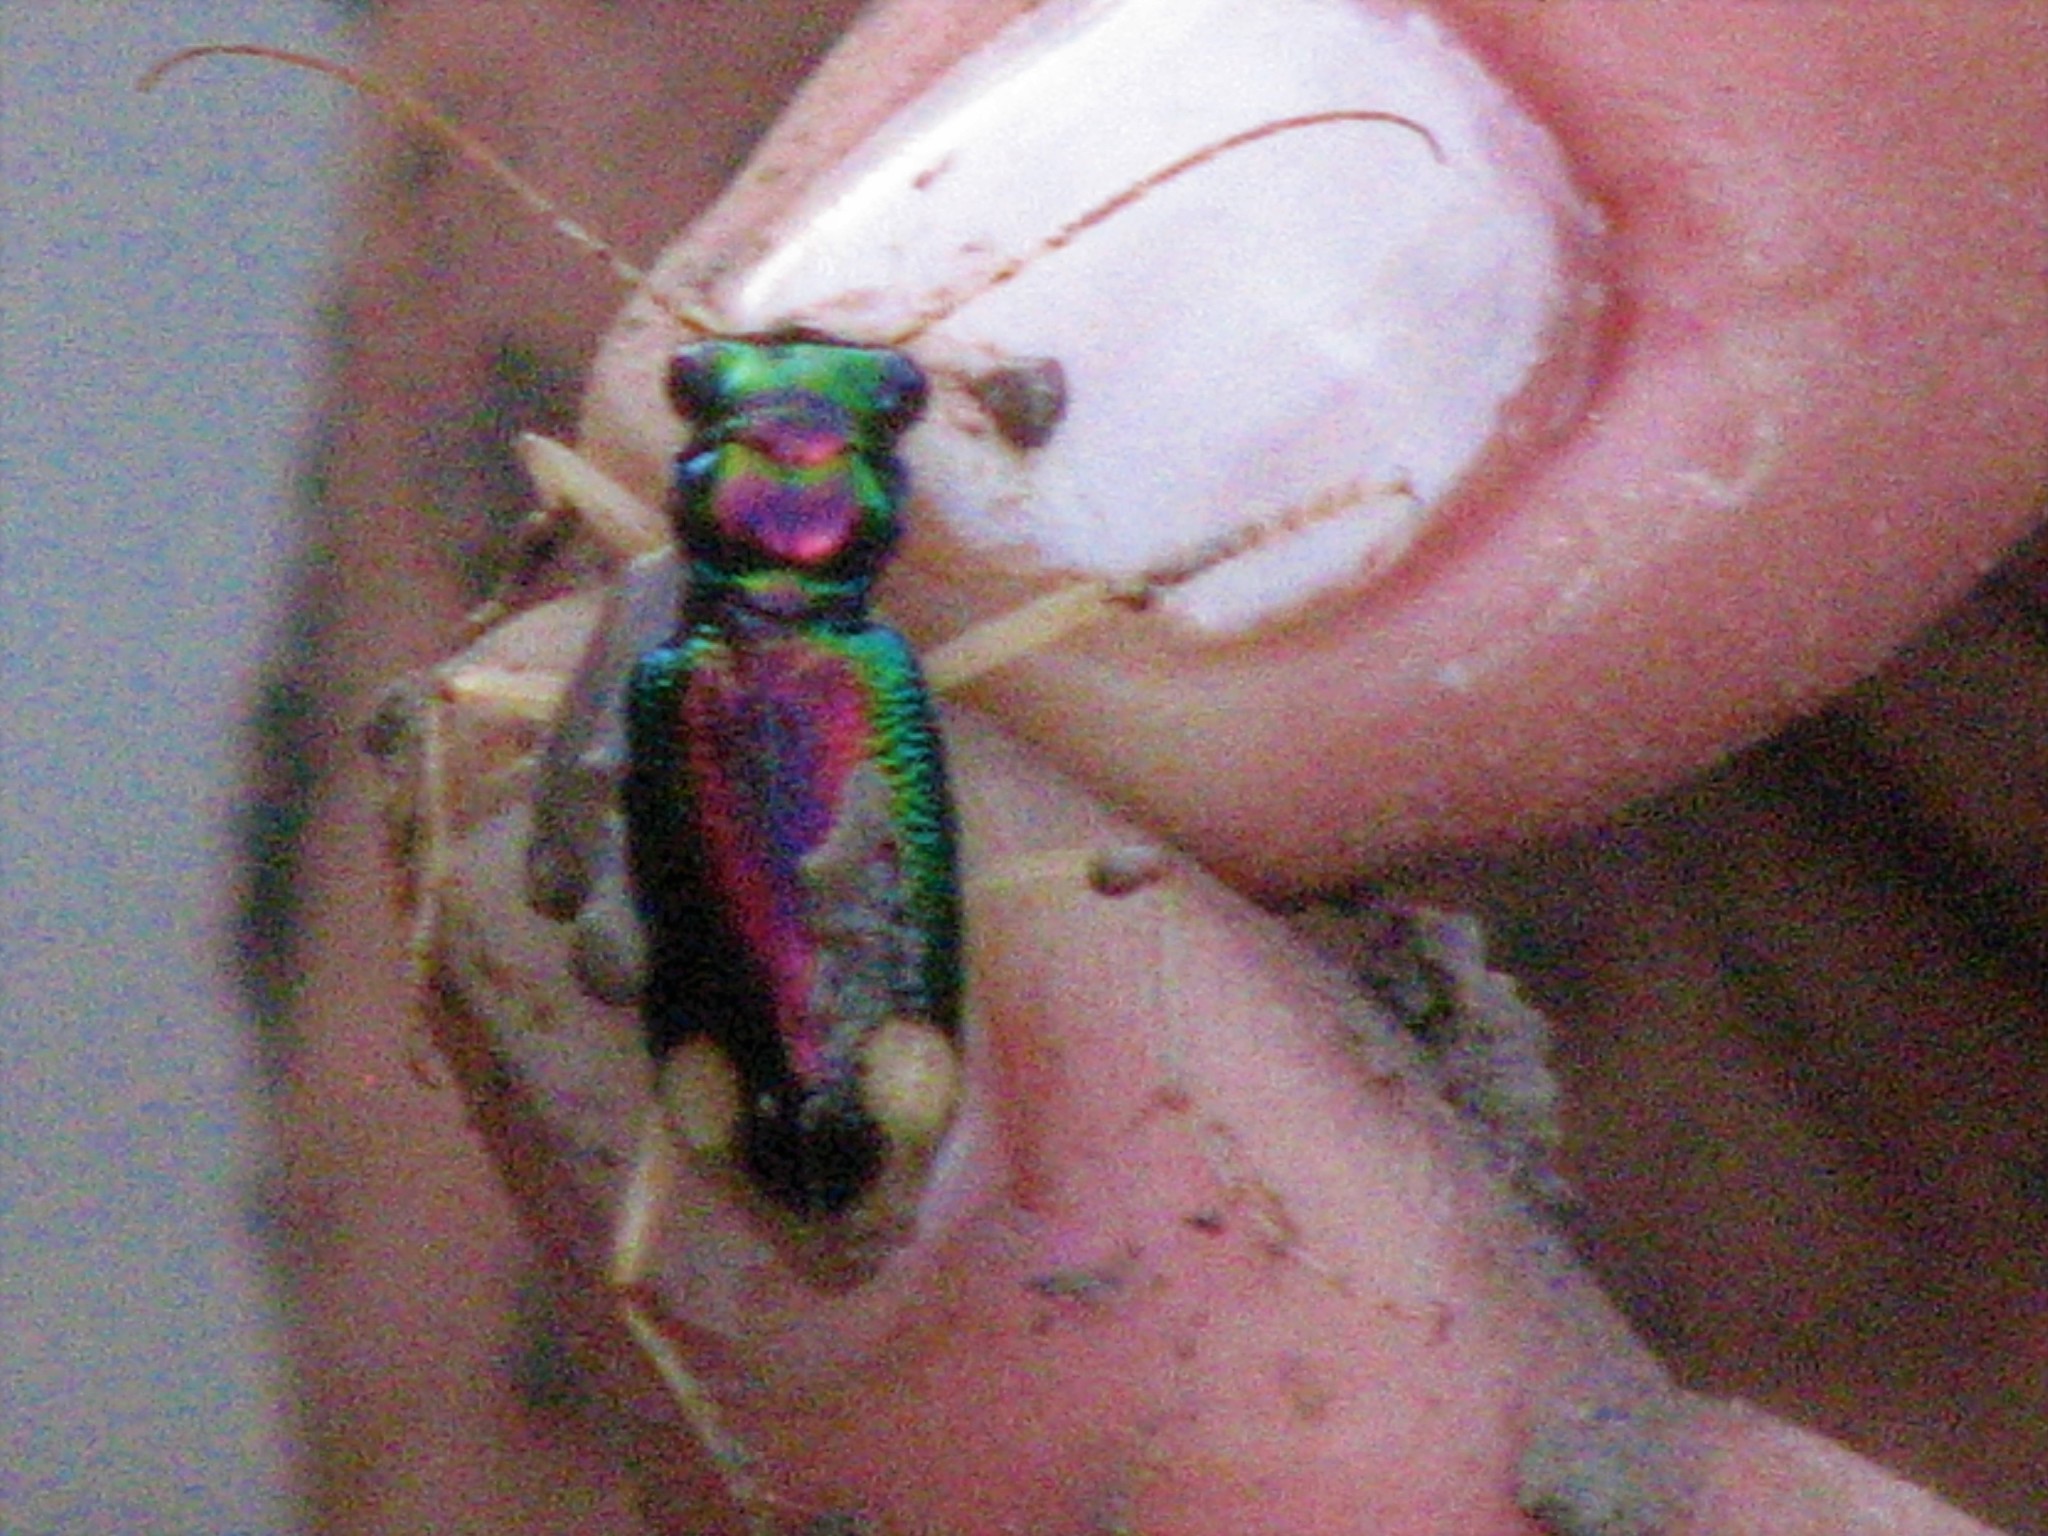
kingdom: Animalia
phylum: Arthropoda
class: Insecta
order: Coleoptera
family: Carabidae
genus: Tetracha
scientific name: Tetracha carolina
